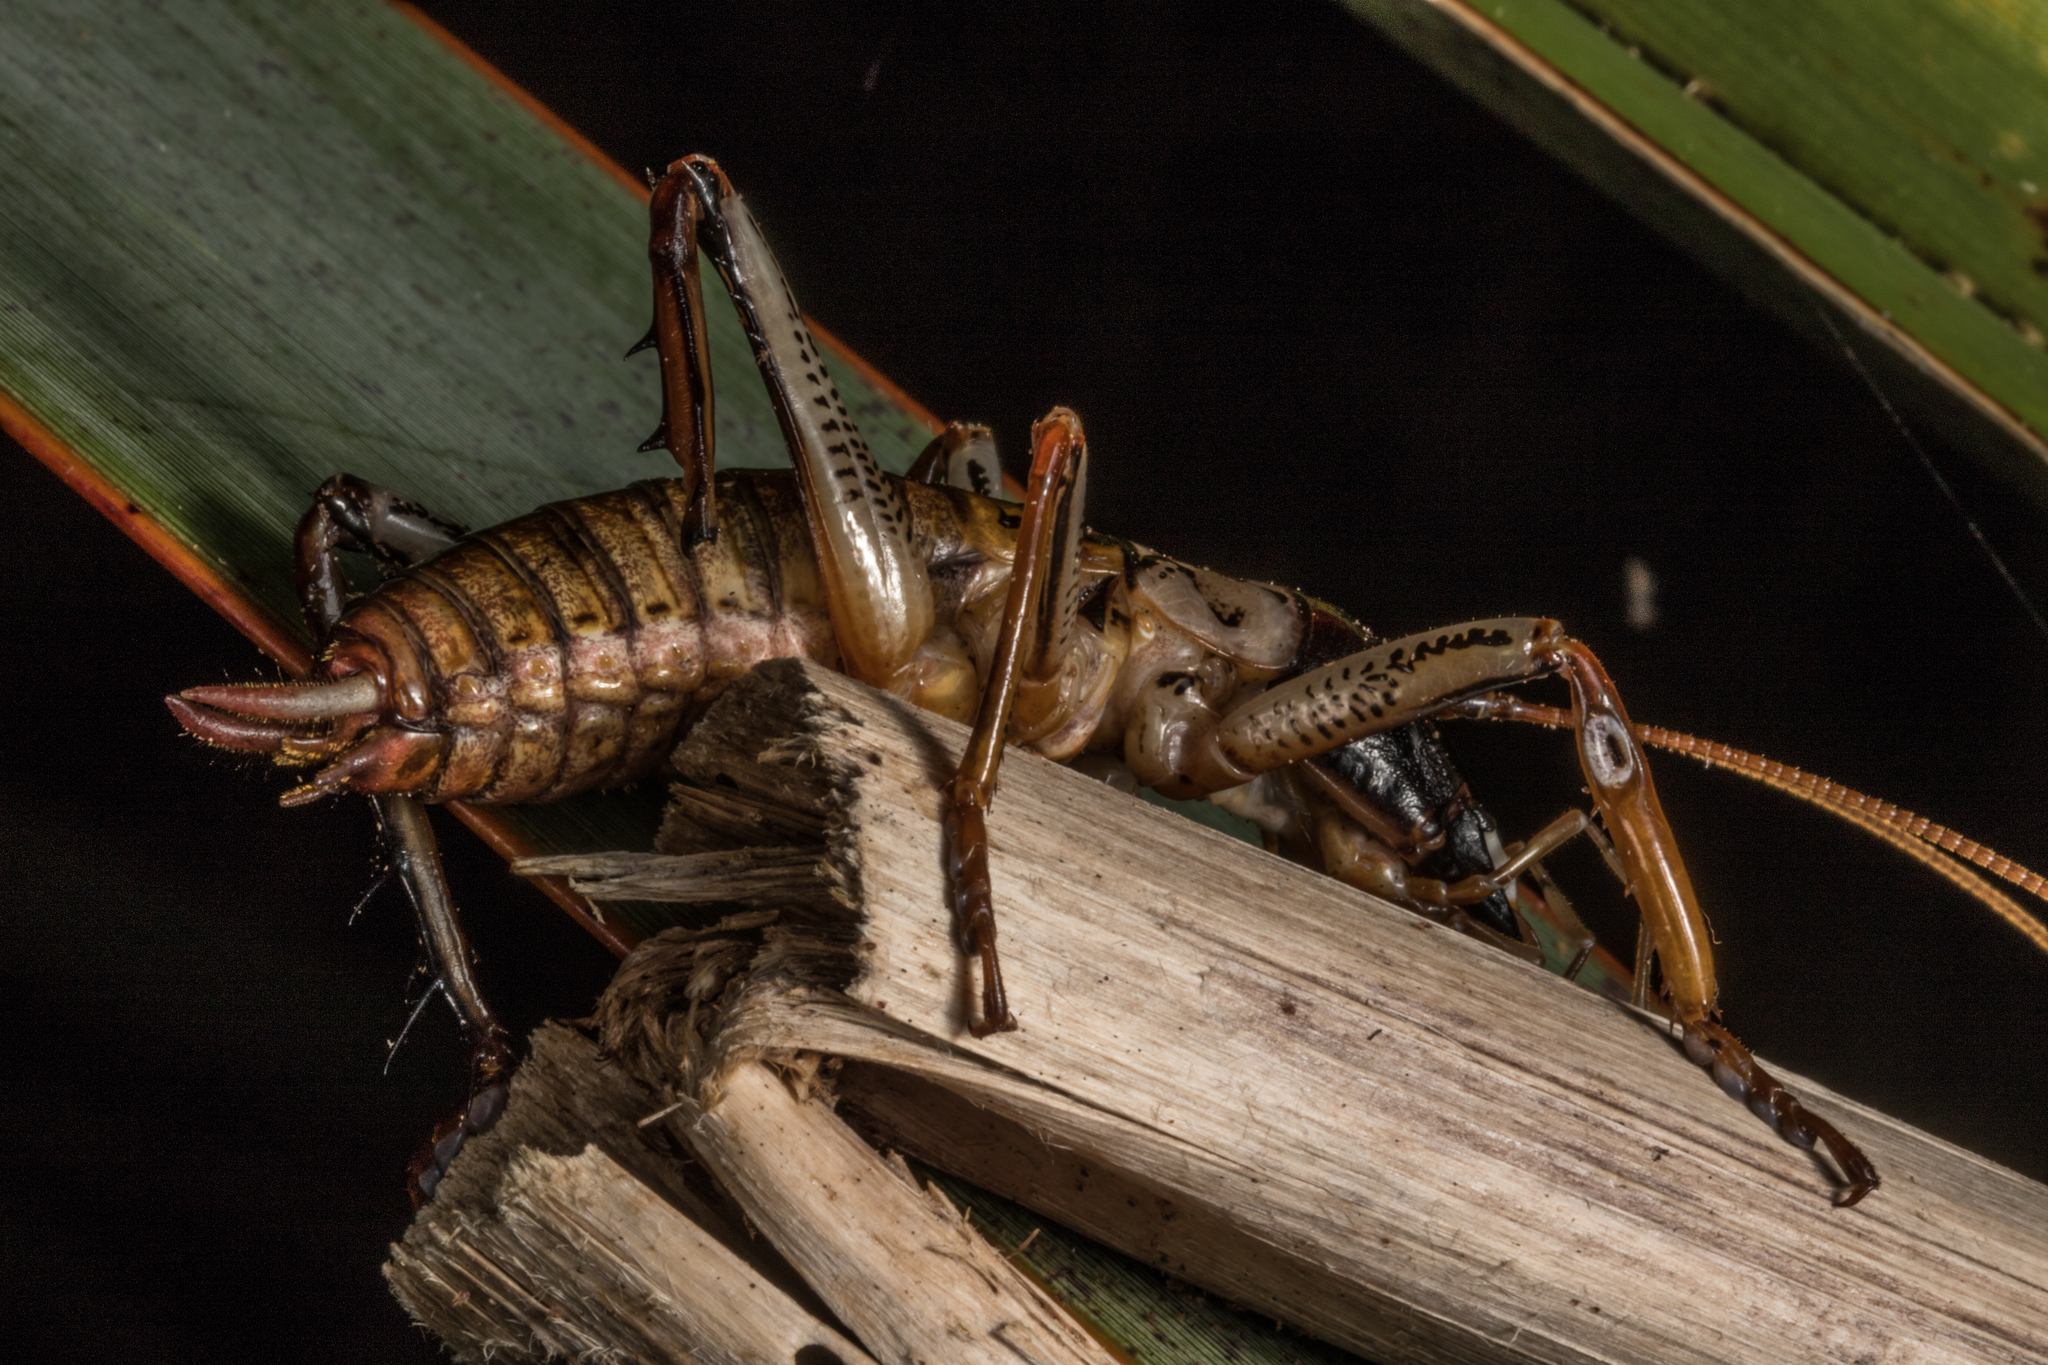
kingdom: Animalia
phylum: Arthropoda
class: Insecta
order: Orthoptera
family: Anostostomatidae
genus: Hemideina
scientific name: Hemideina thoracica
